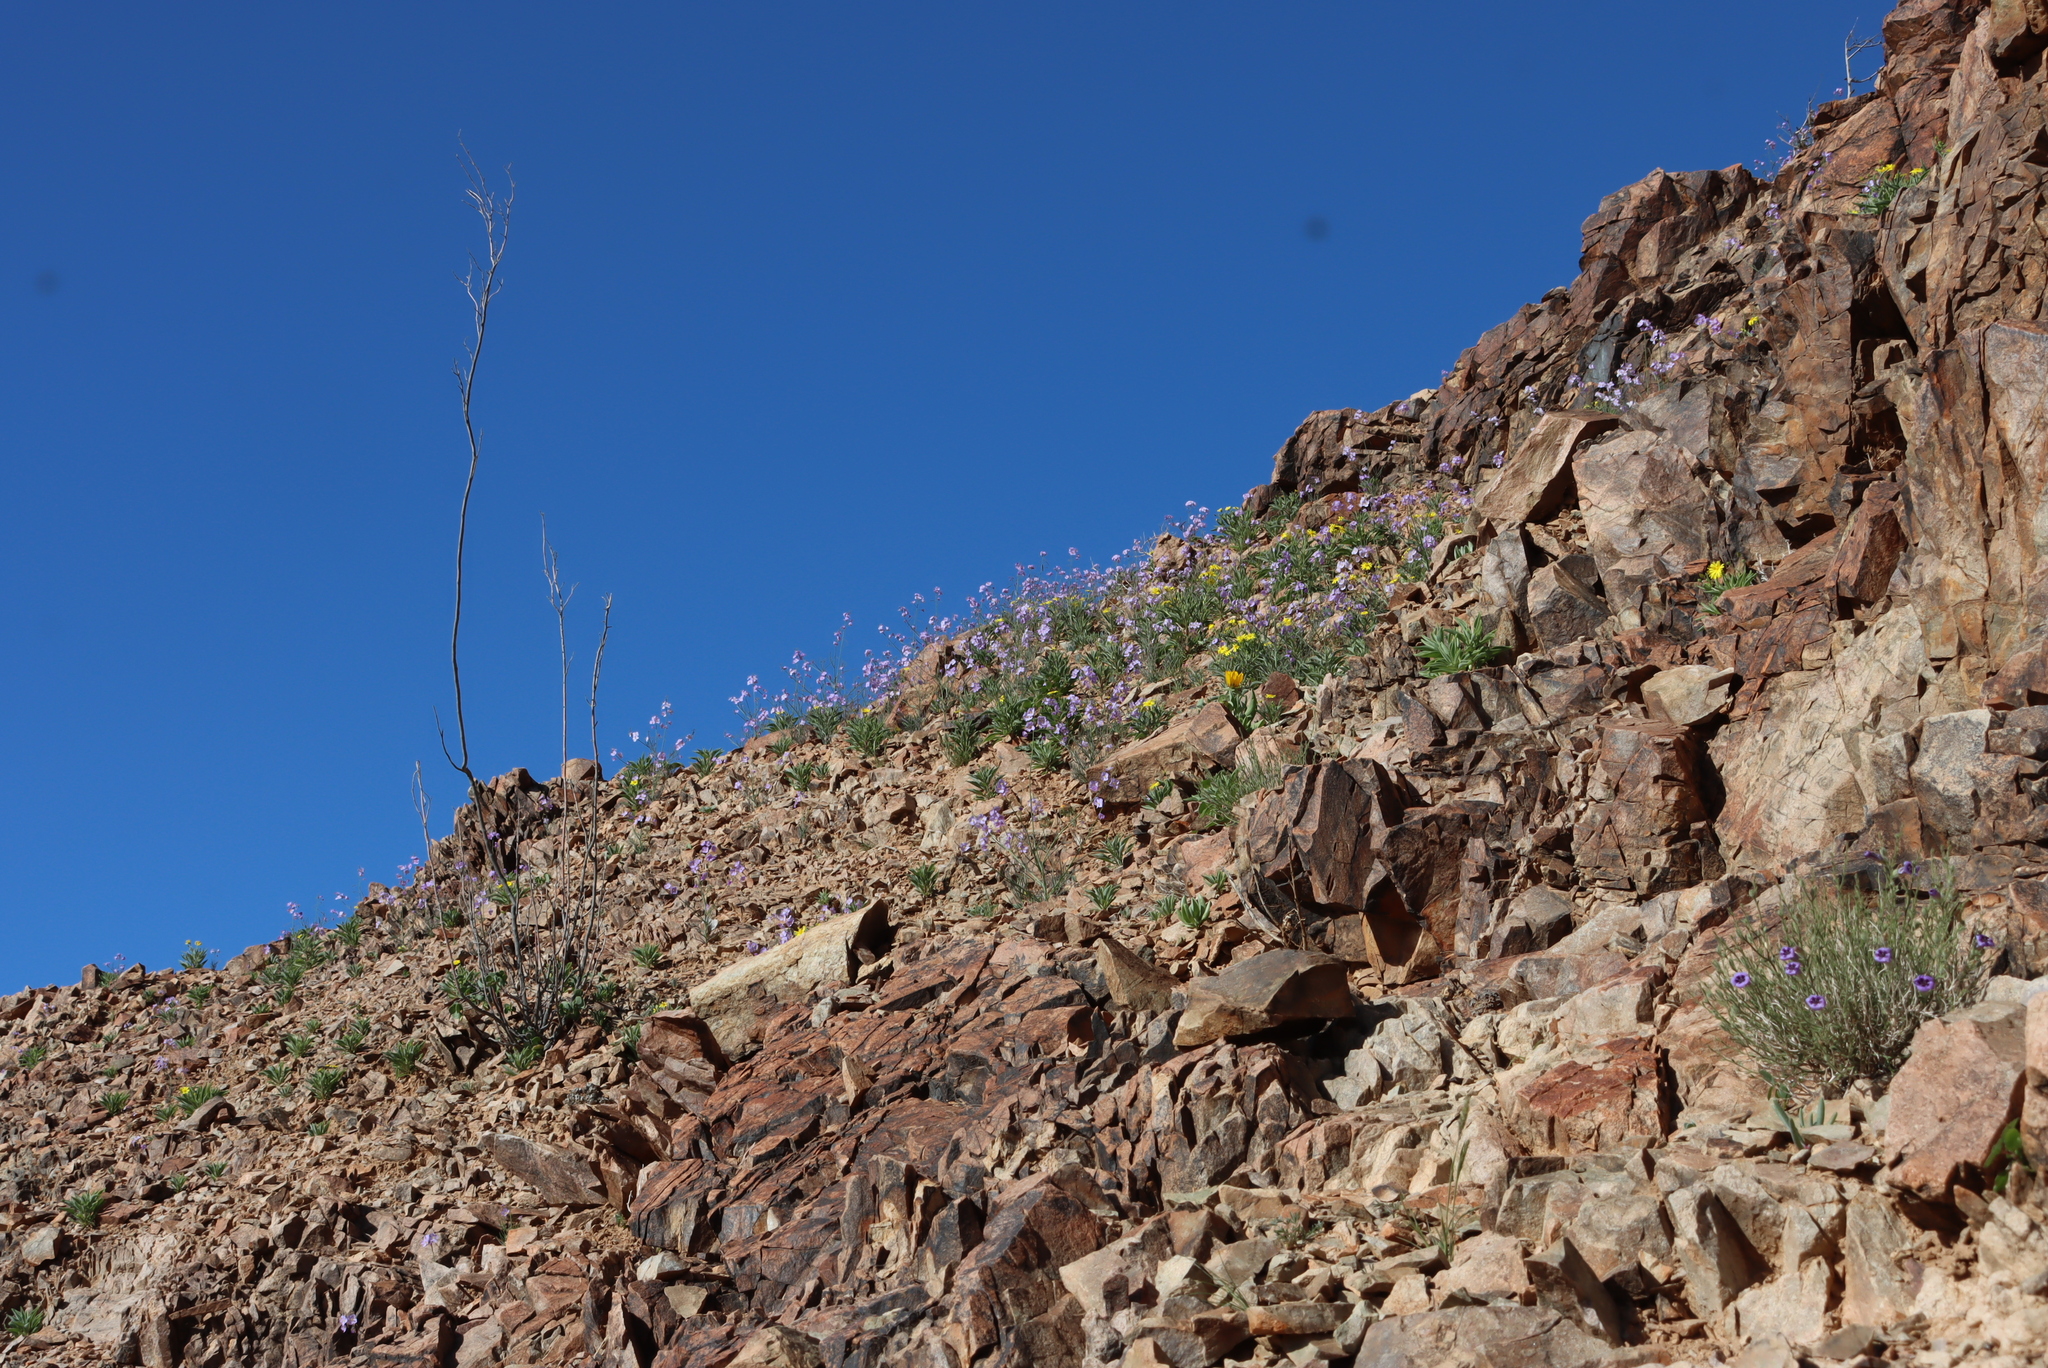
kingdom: Plantae
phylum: Tracheophyta
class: Magnoliopsida
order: Brassicales
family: Brassicaceae
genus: Heliophila
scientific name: Heliophila trifurca
